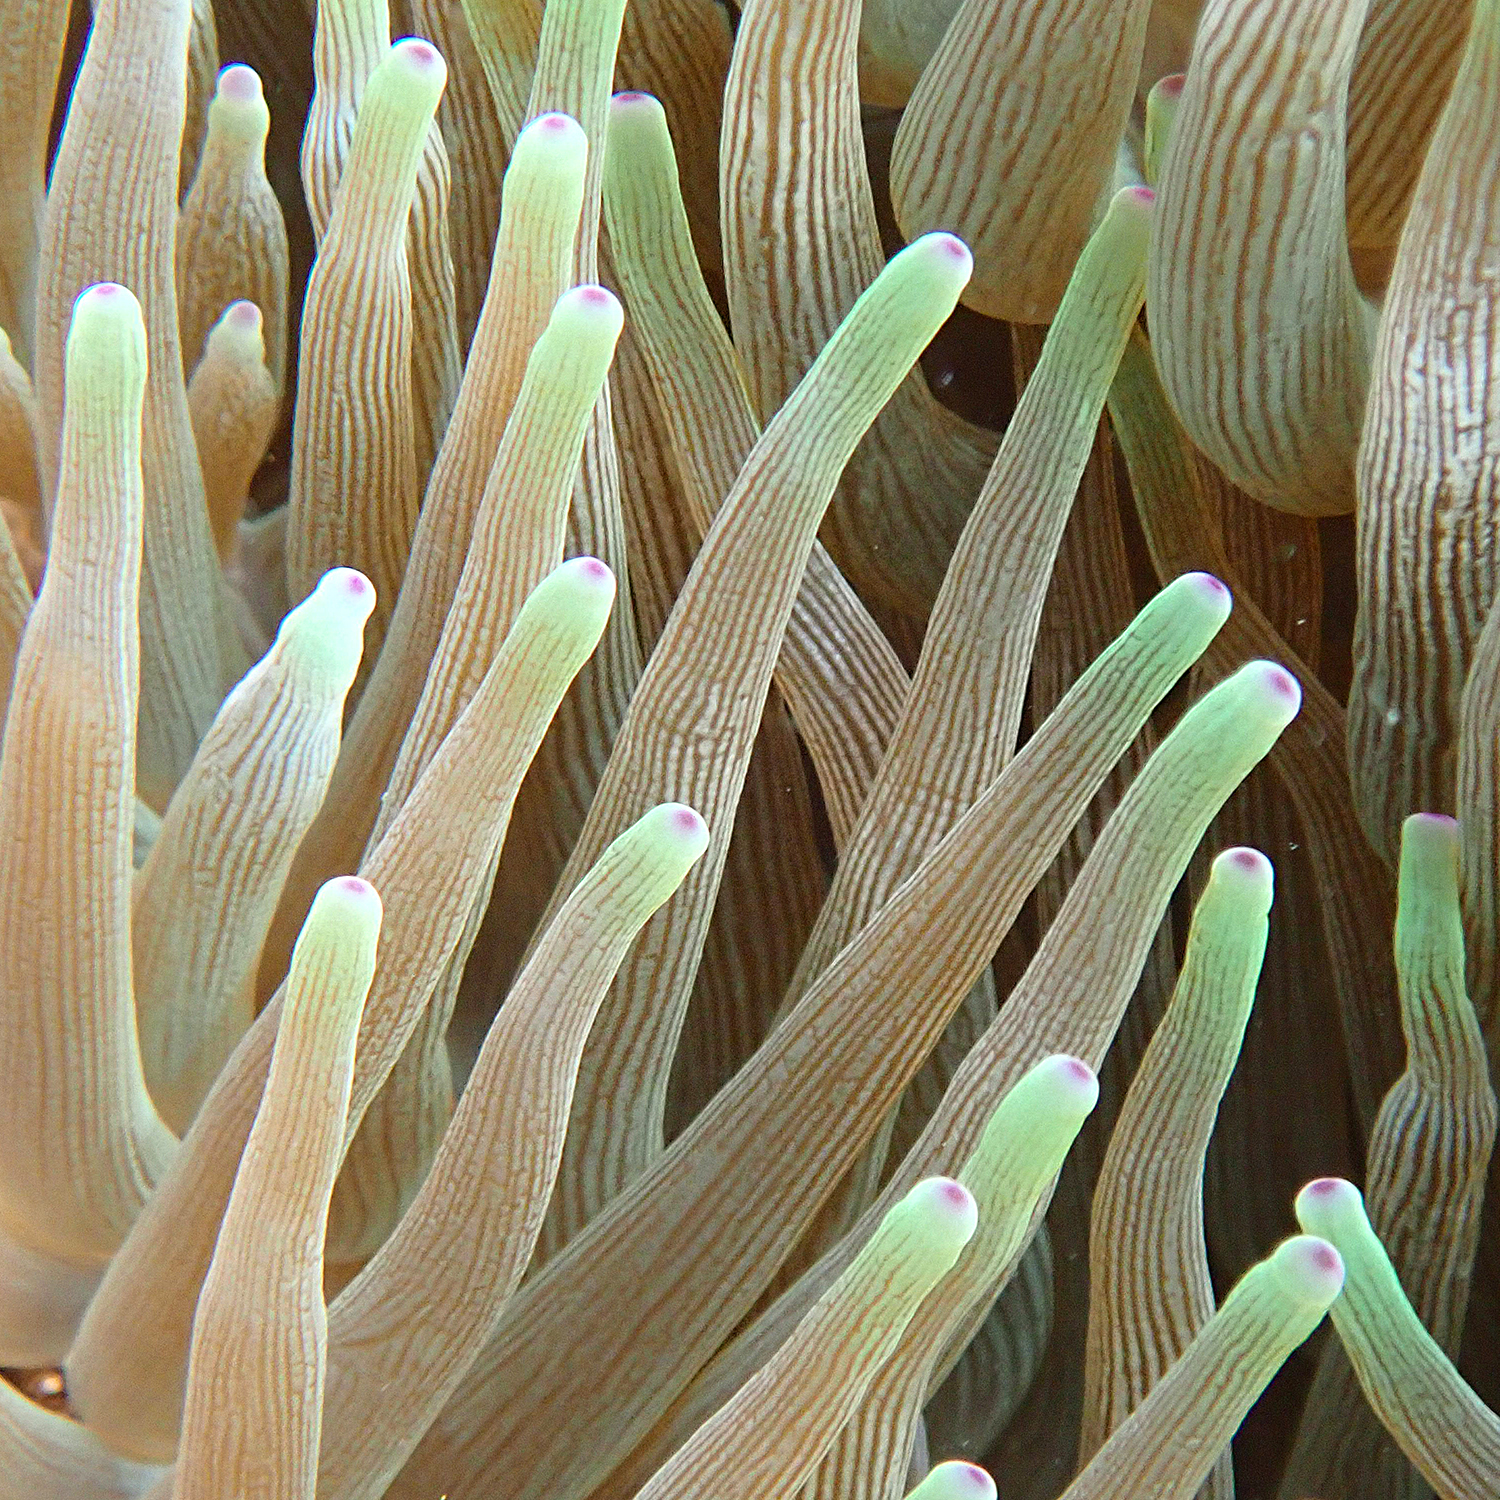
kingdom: Animalia
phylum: Cnidaria
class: Anthozoa
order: Actiniaria
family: Actiniidae
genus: Entacmaea
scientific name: Entacmaea quadricolor
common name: Bulb tentacle sea anemone
